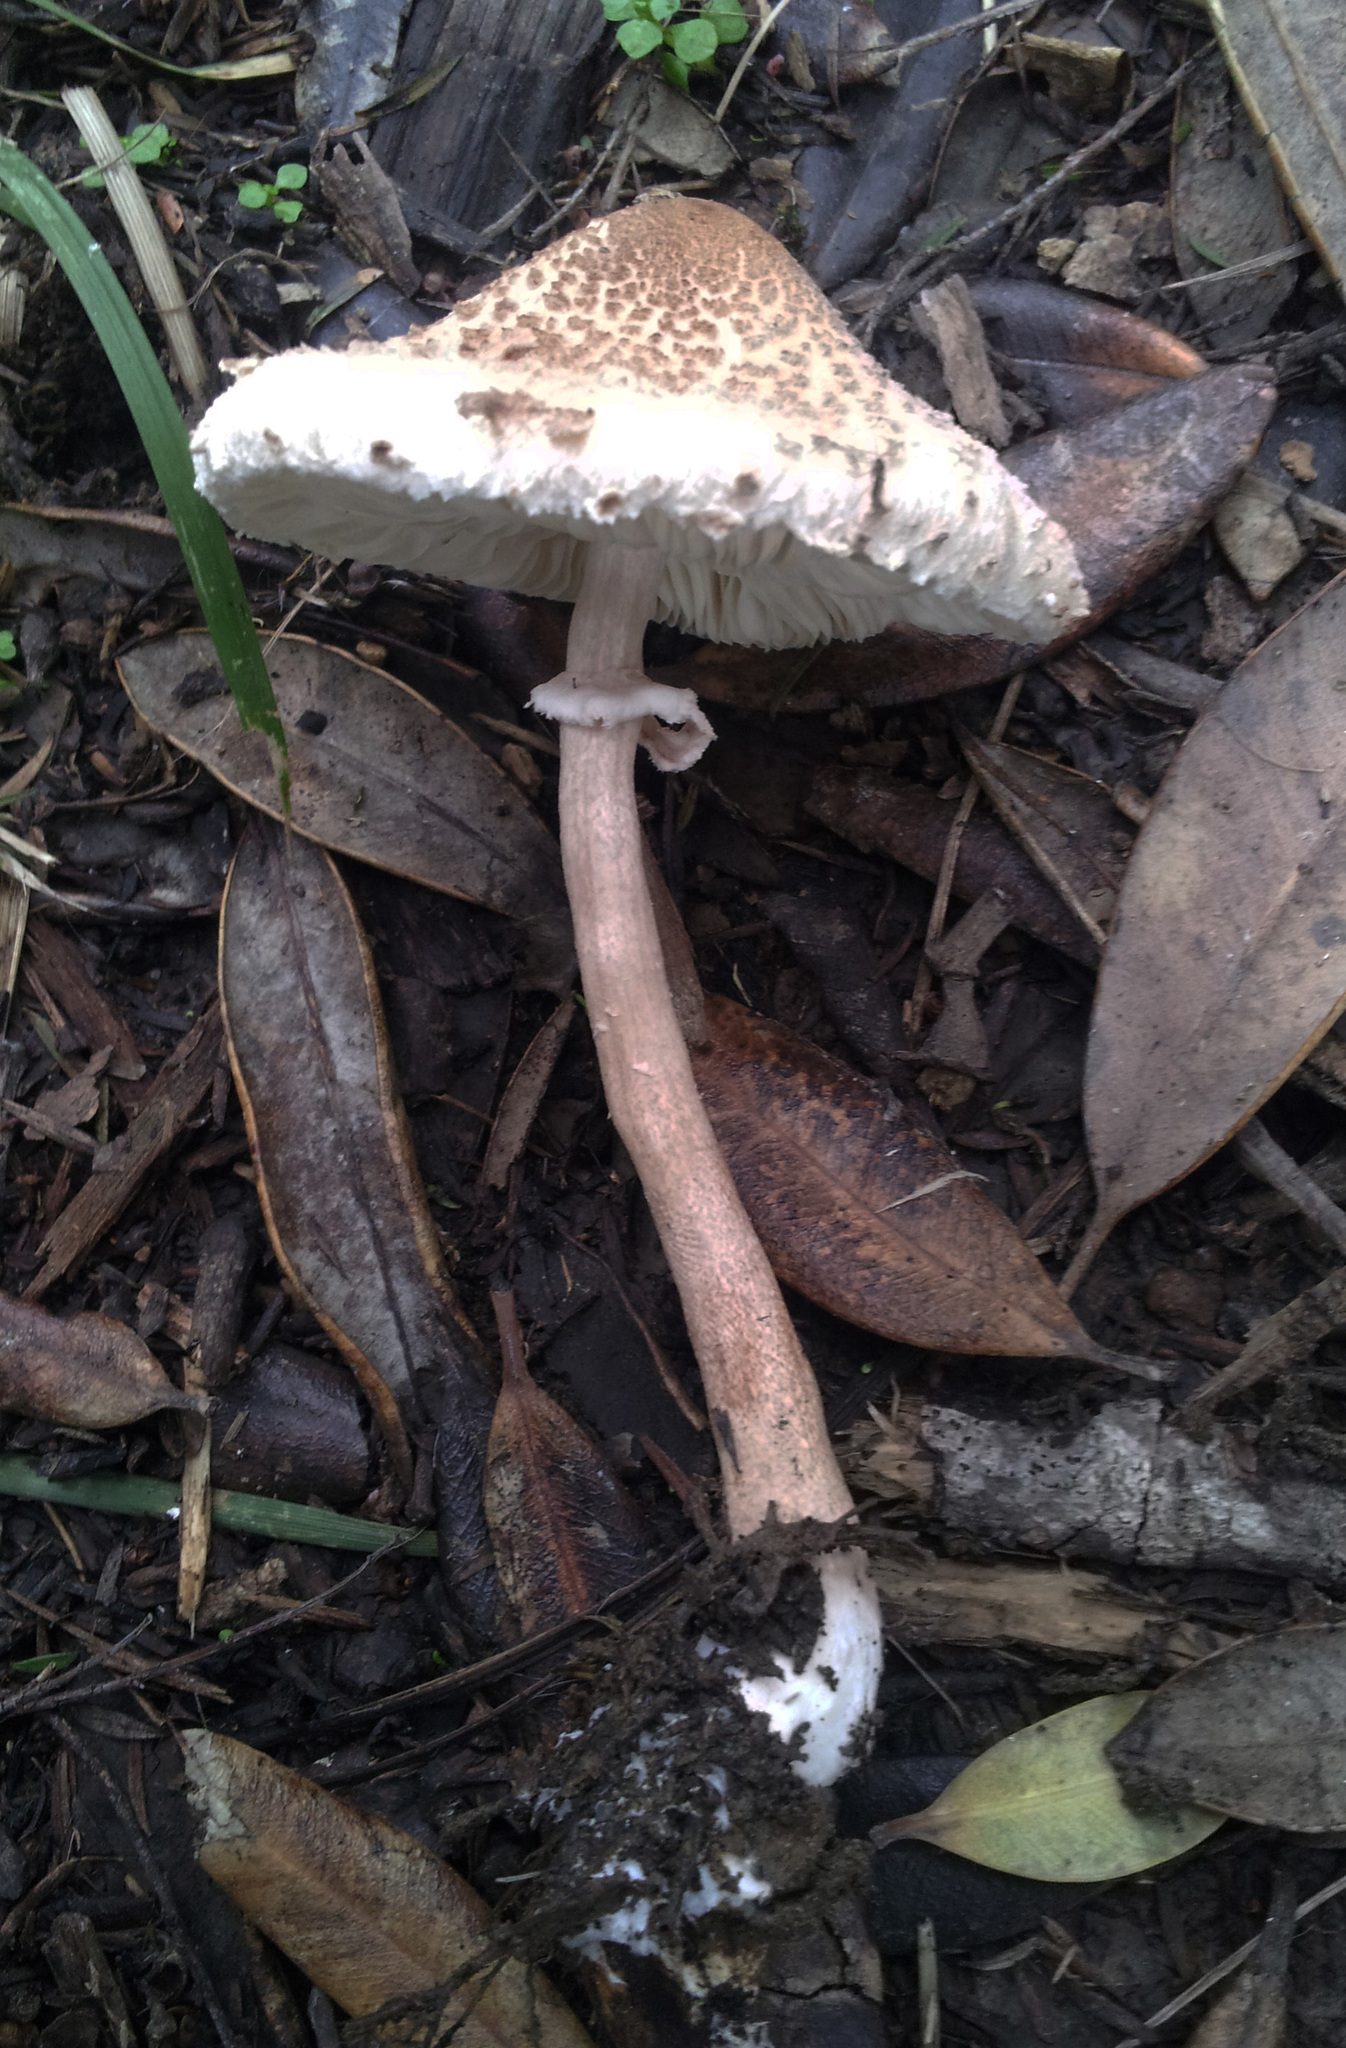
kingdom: Fungi
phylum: Basidiomycota
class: Agaricomycetes
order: Agaricales
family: Agaricaceae
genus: Macrolepiota
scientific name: Macrolepiota clelandii
